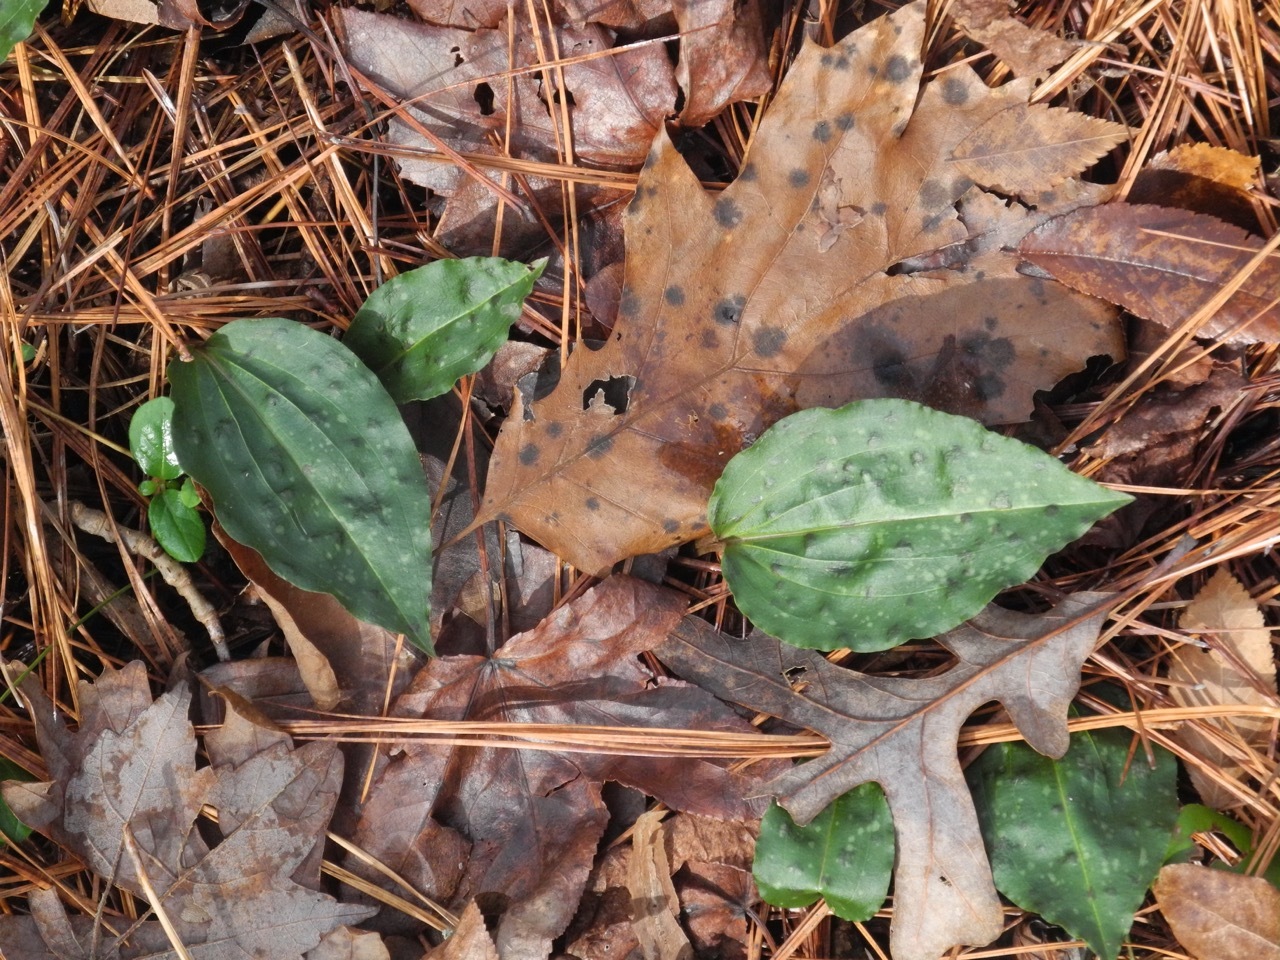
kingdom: Plantae
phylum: Tracheophyta
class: Liliopsida
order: Asparagales
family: Orchidaceae
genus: Tipularia
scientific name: Tipularia discolor
